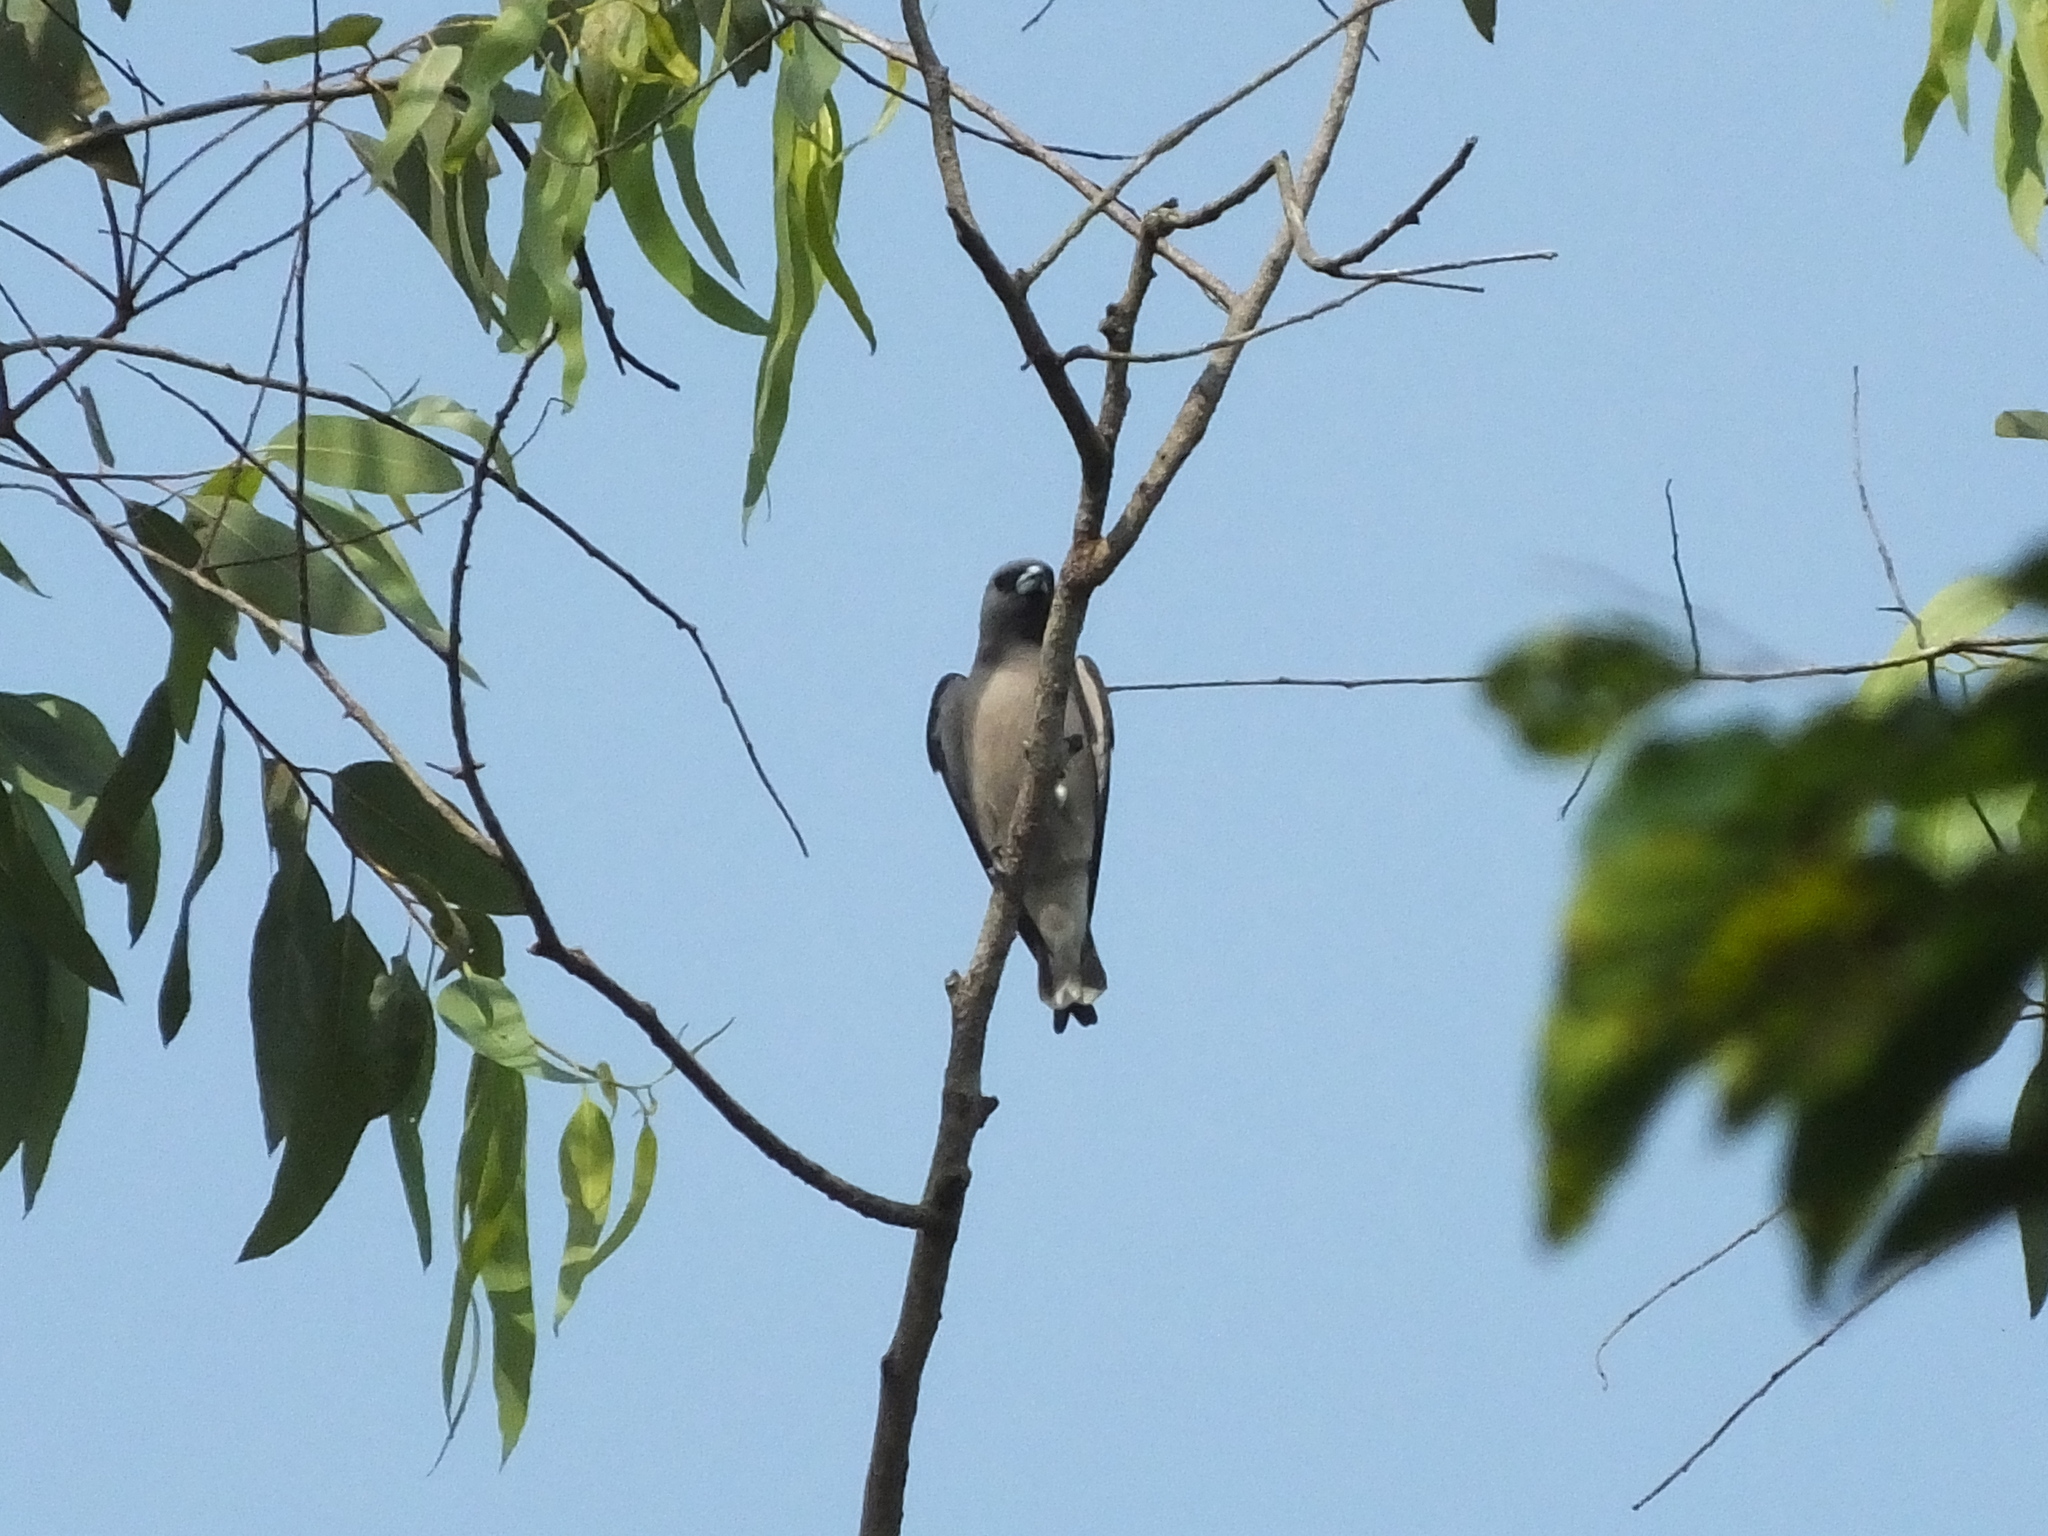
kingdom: Animalia
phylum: Chordata
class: Aves
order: Passeriformes
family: Artamidae
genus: Artamus
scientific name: Artamus fuscus
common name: Ashy woodswallow
